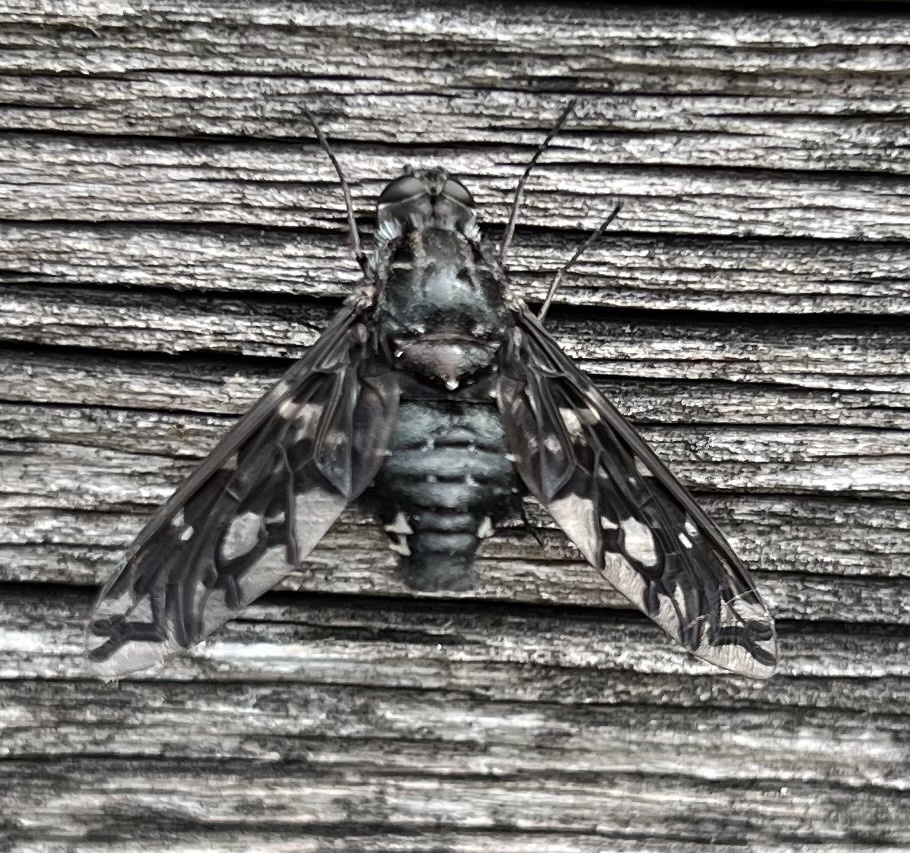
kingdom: Animalia
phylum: Arthropoda
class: Insecta
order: Diptera
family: Bombyliidae
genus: Xenox
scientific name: Xenox tigrinus
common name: Tiger bee fly
